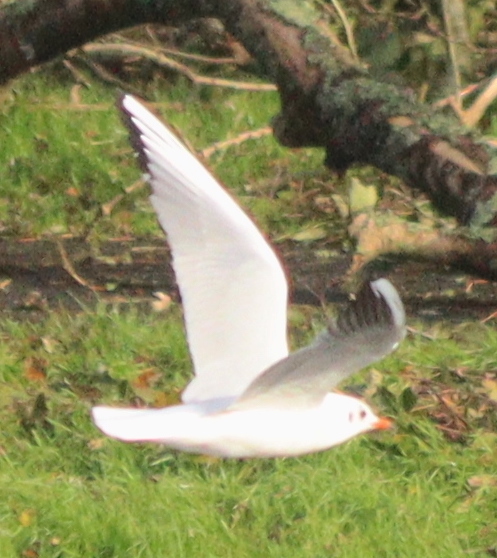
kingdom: Animalia
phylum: Chordata
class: Aves
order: Charadriiformes
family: Laridae
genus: Chroicocephalus
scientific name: Chroicocephalus ridibundus
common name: Black-headed gull
